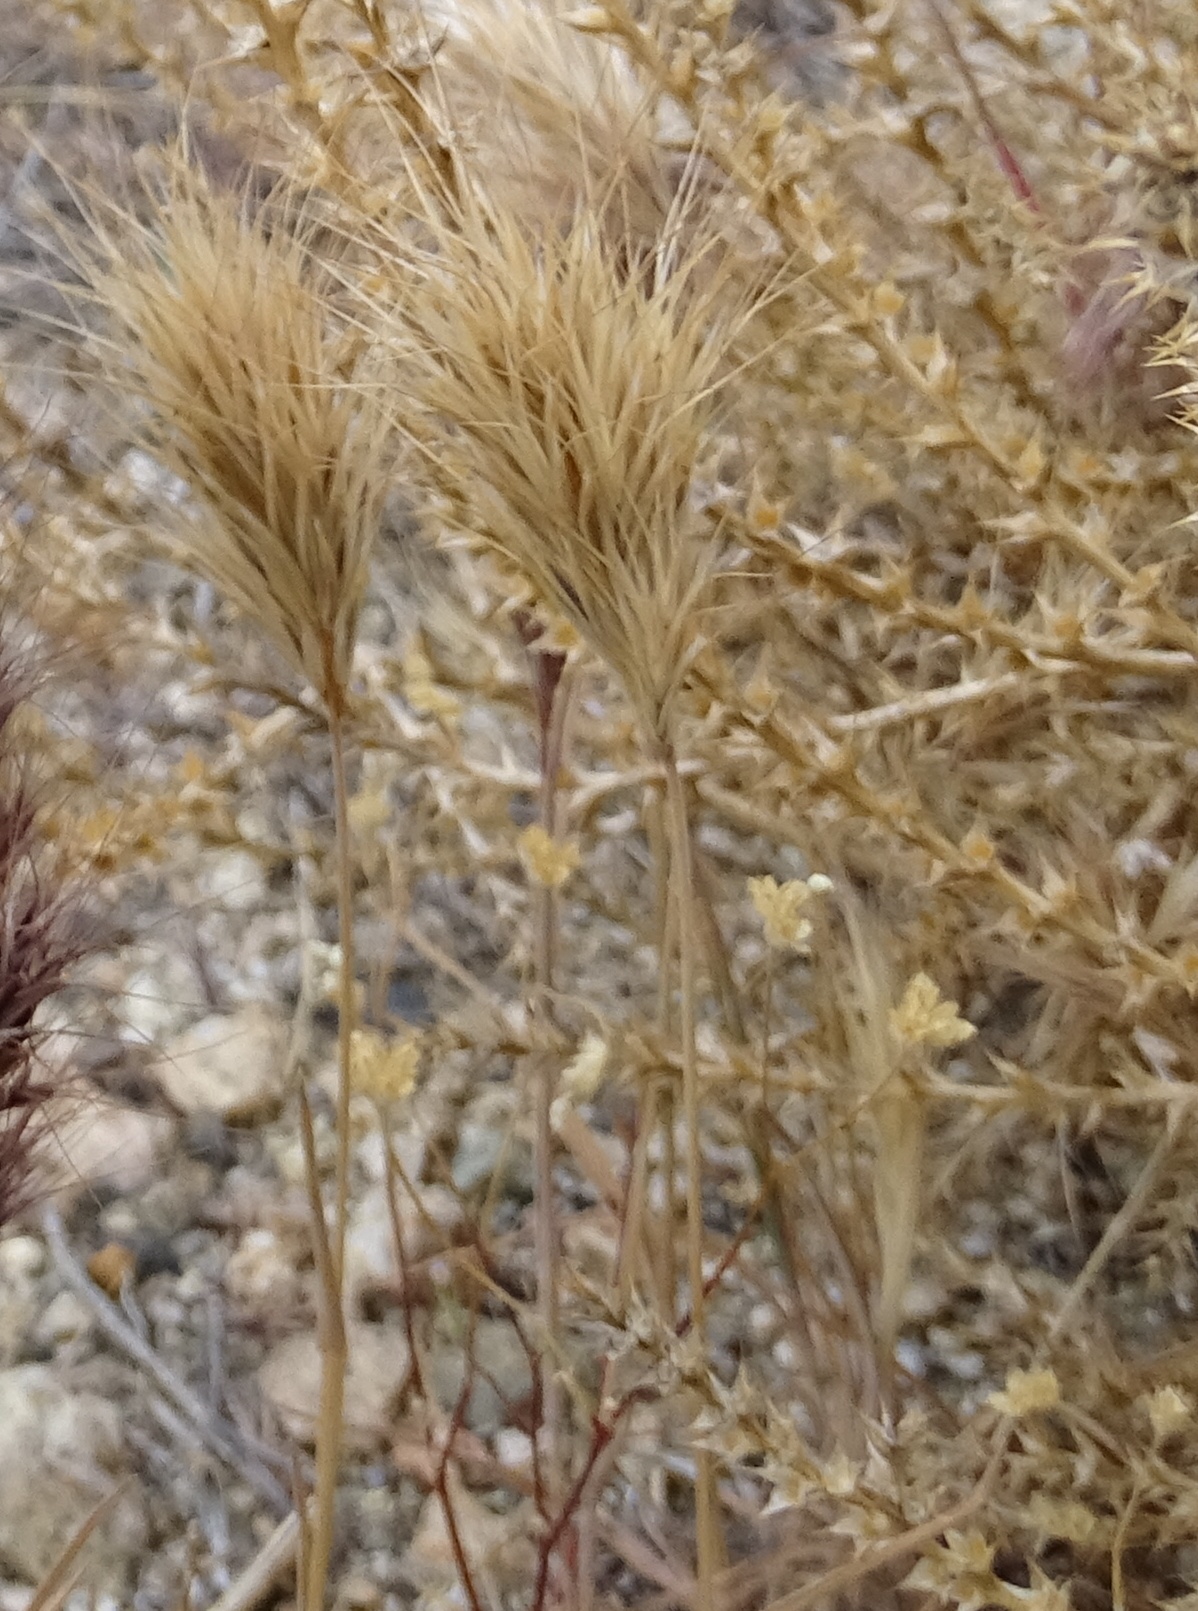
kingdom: Plantae
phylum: Tracheophyta
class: Liliopsida
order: Poales
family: Poaceae
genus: Bromus
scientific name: Bromus rubens
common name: Red brome
